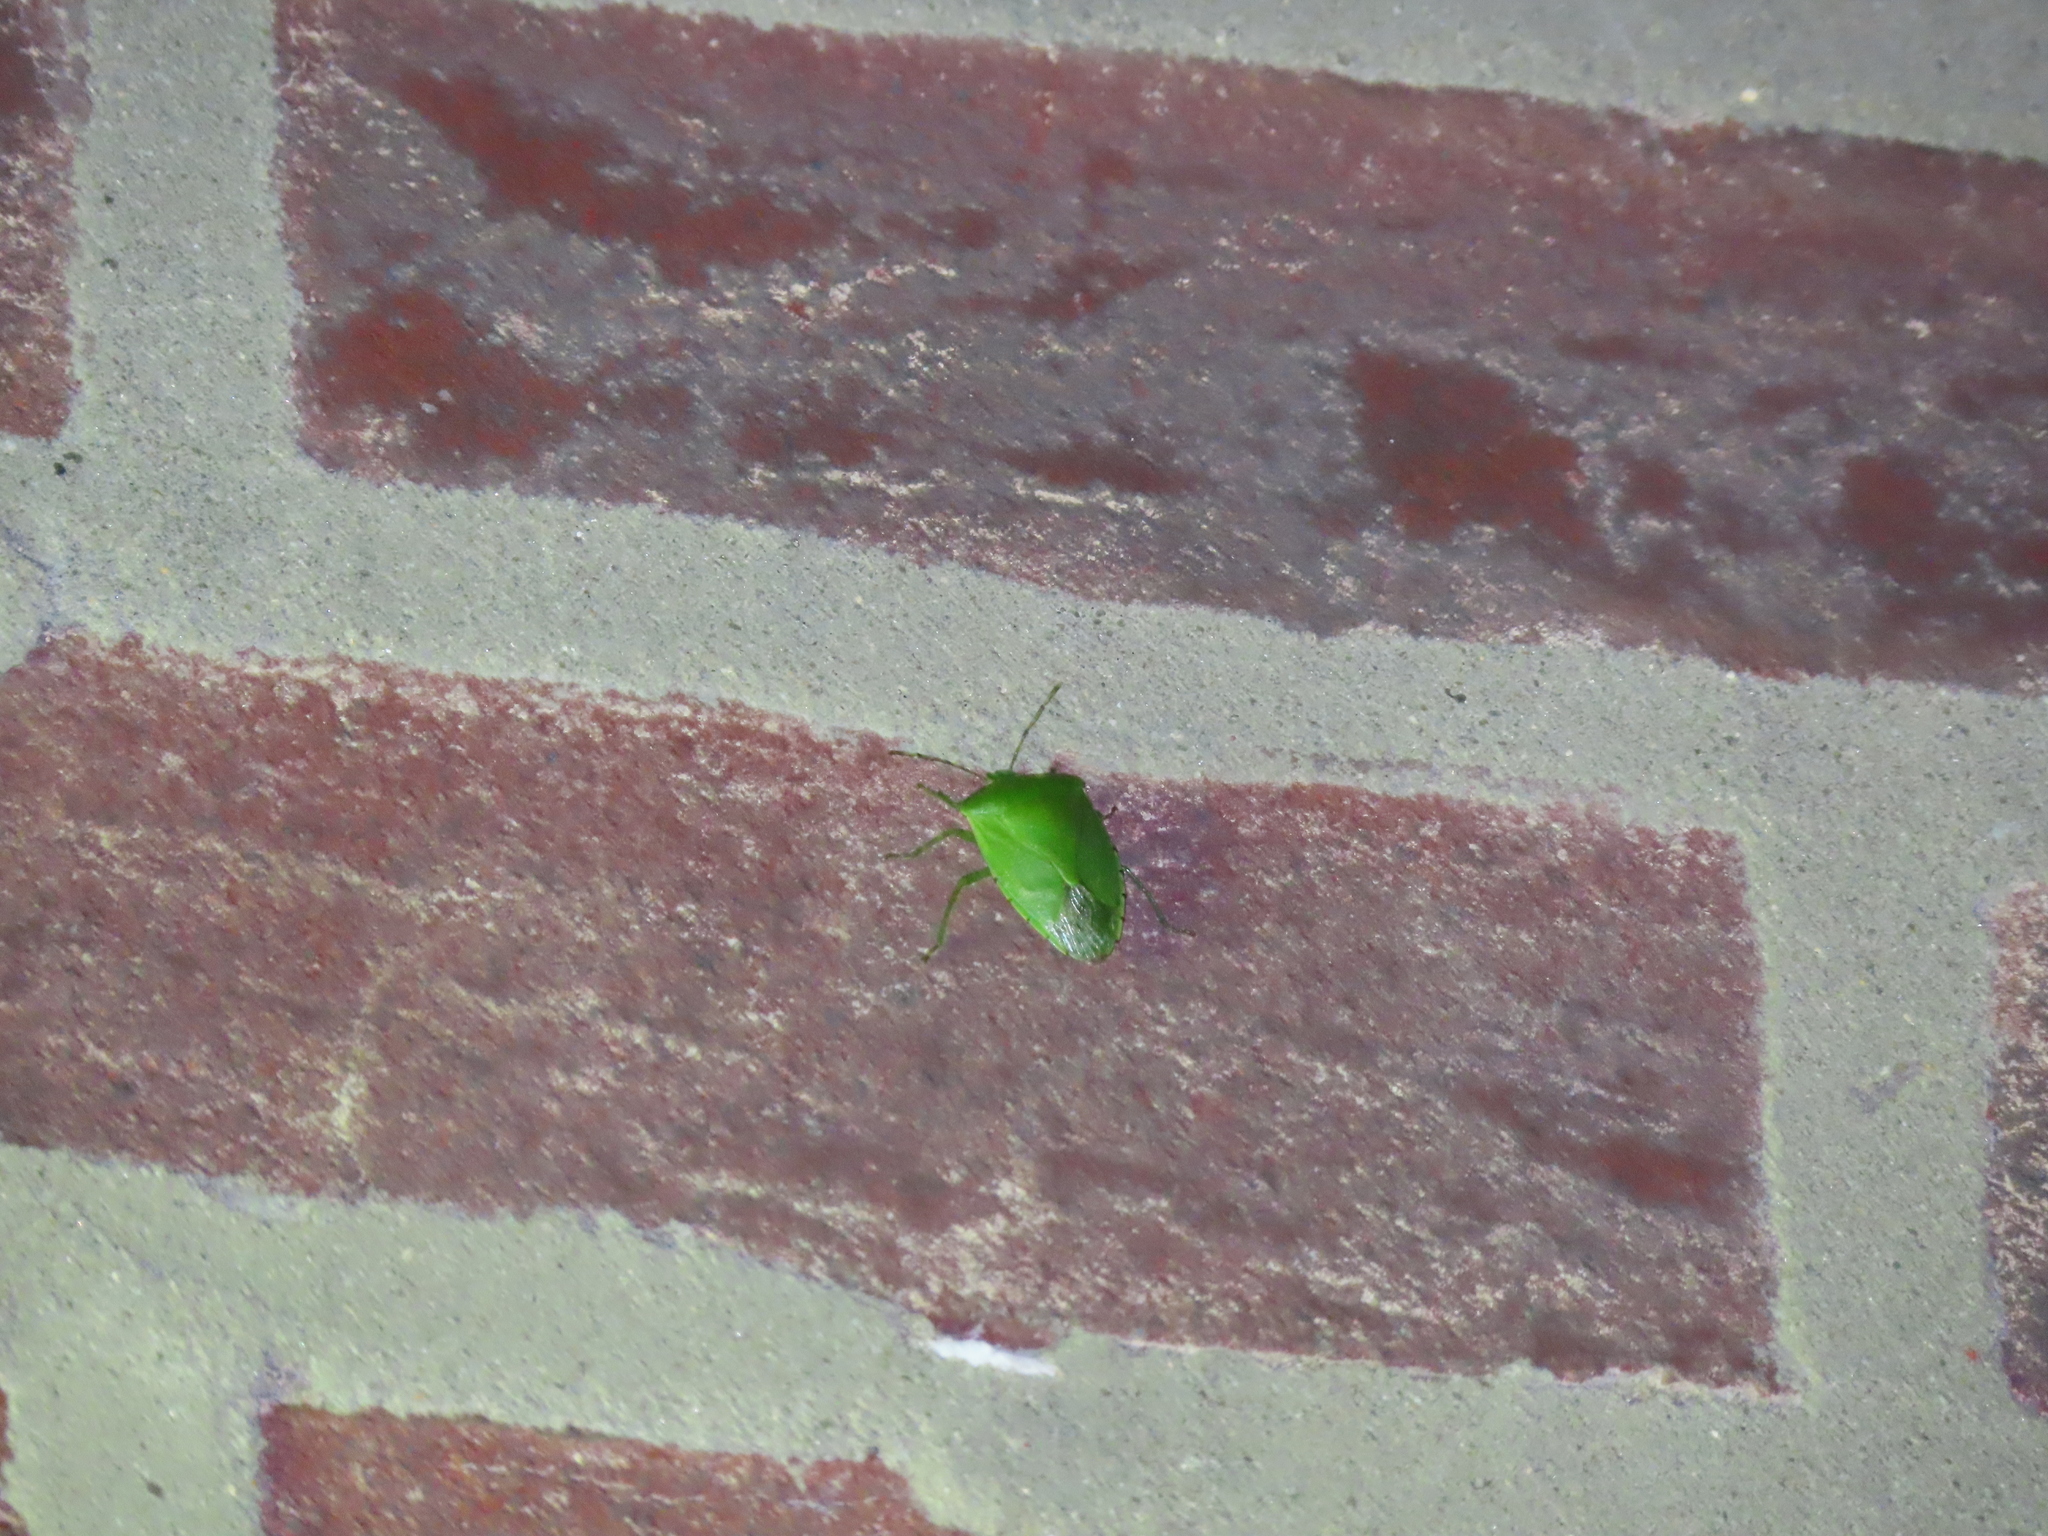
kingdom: Animalia
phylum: Arthropoda
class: Insecta
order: Hemiptera
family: Pentatomidae
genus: Chinavia
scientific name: Chinavia hilaris
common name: Green stink bug
